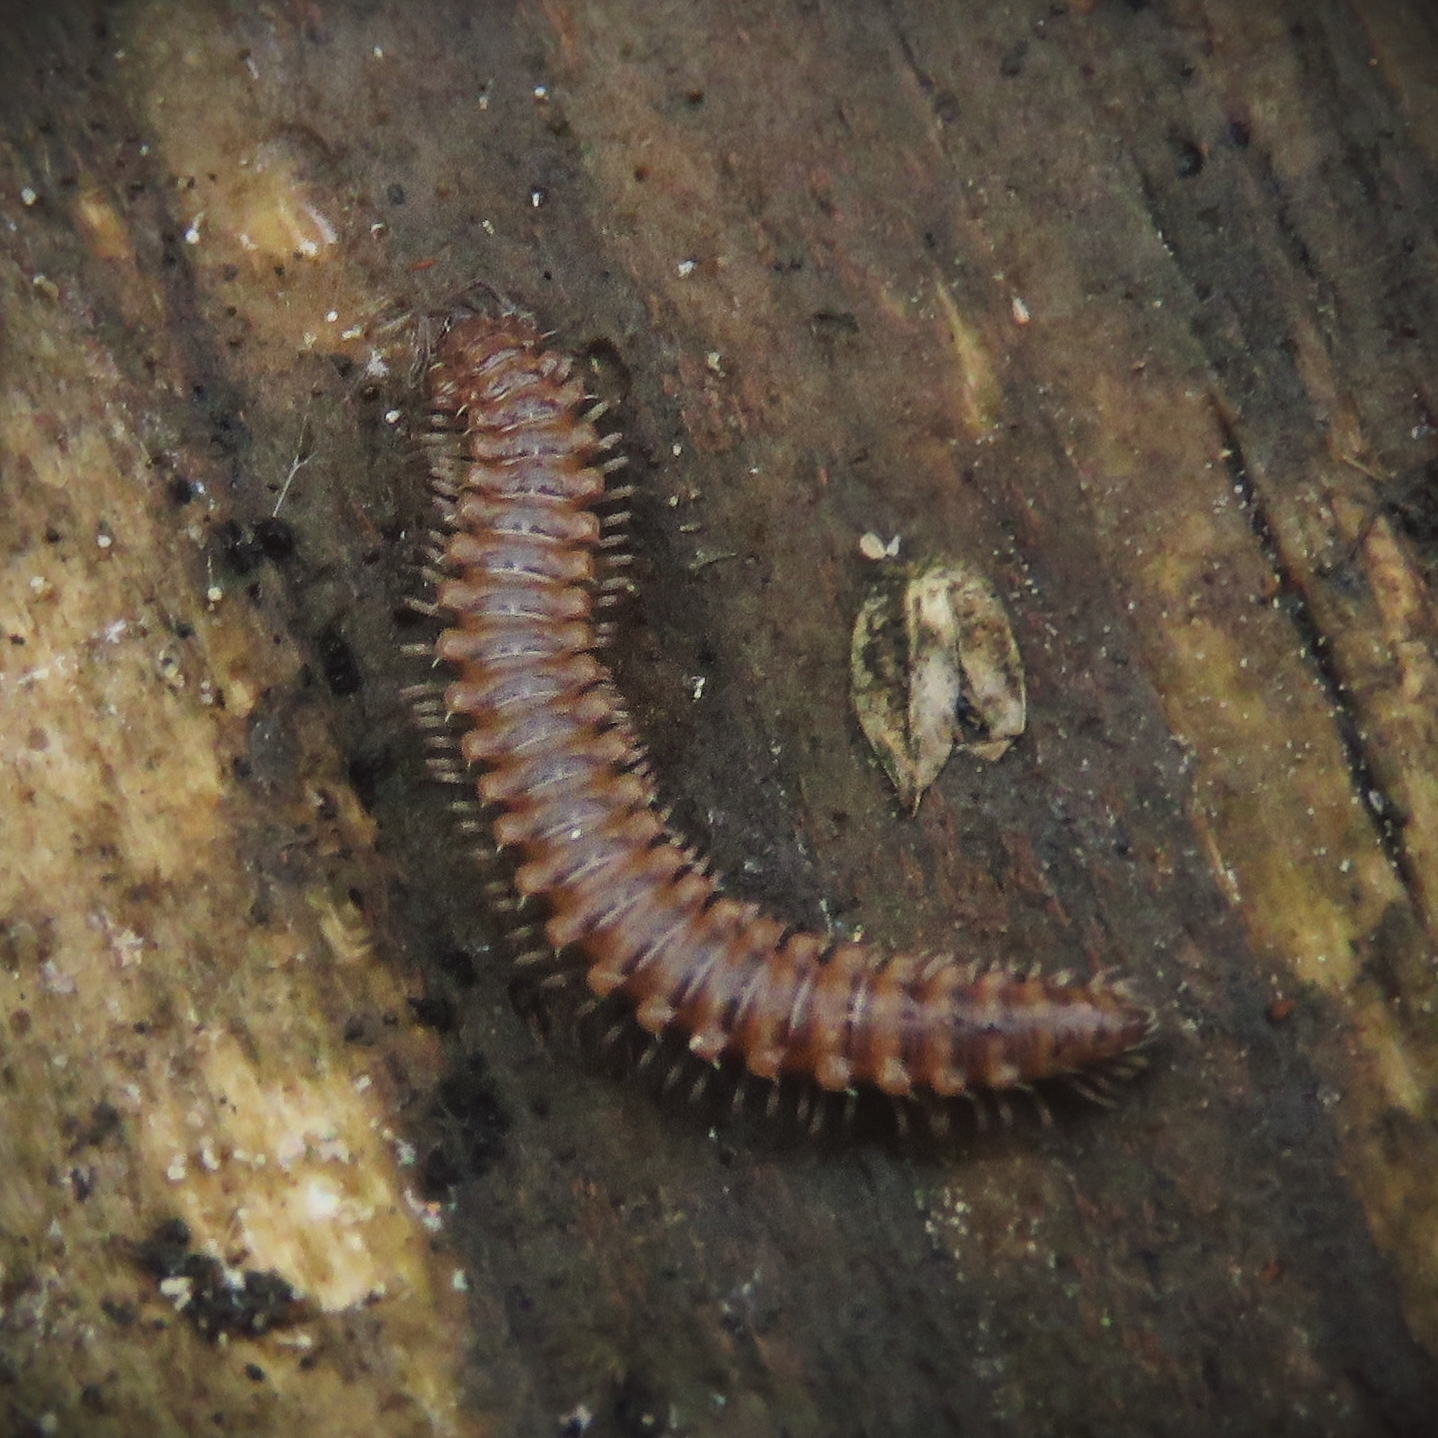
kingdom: Animalia
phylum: Arthropoda
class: Diplopoda
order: Chordeumatida
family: Craspedosomatidae
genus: Nanogona
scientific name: Nanogona polydesmoides
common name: Eyed flat-backed millipede
